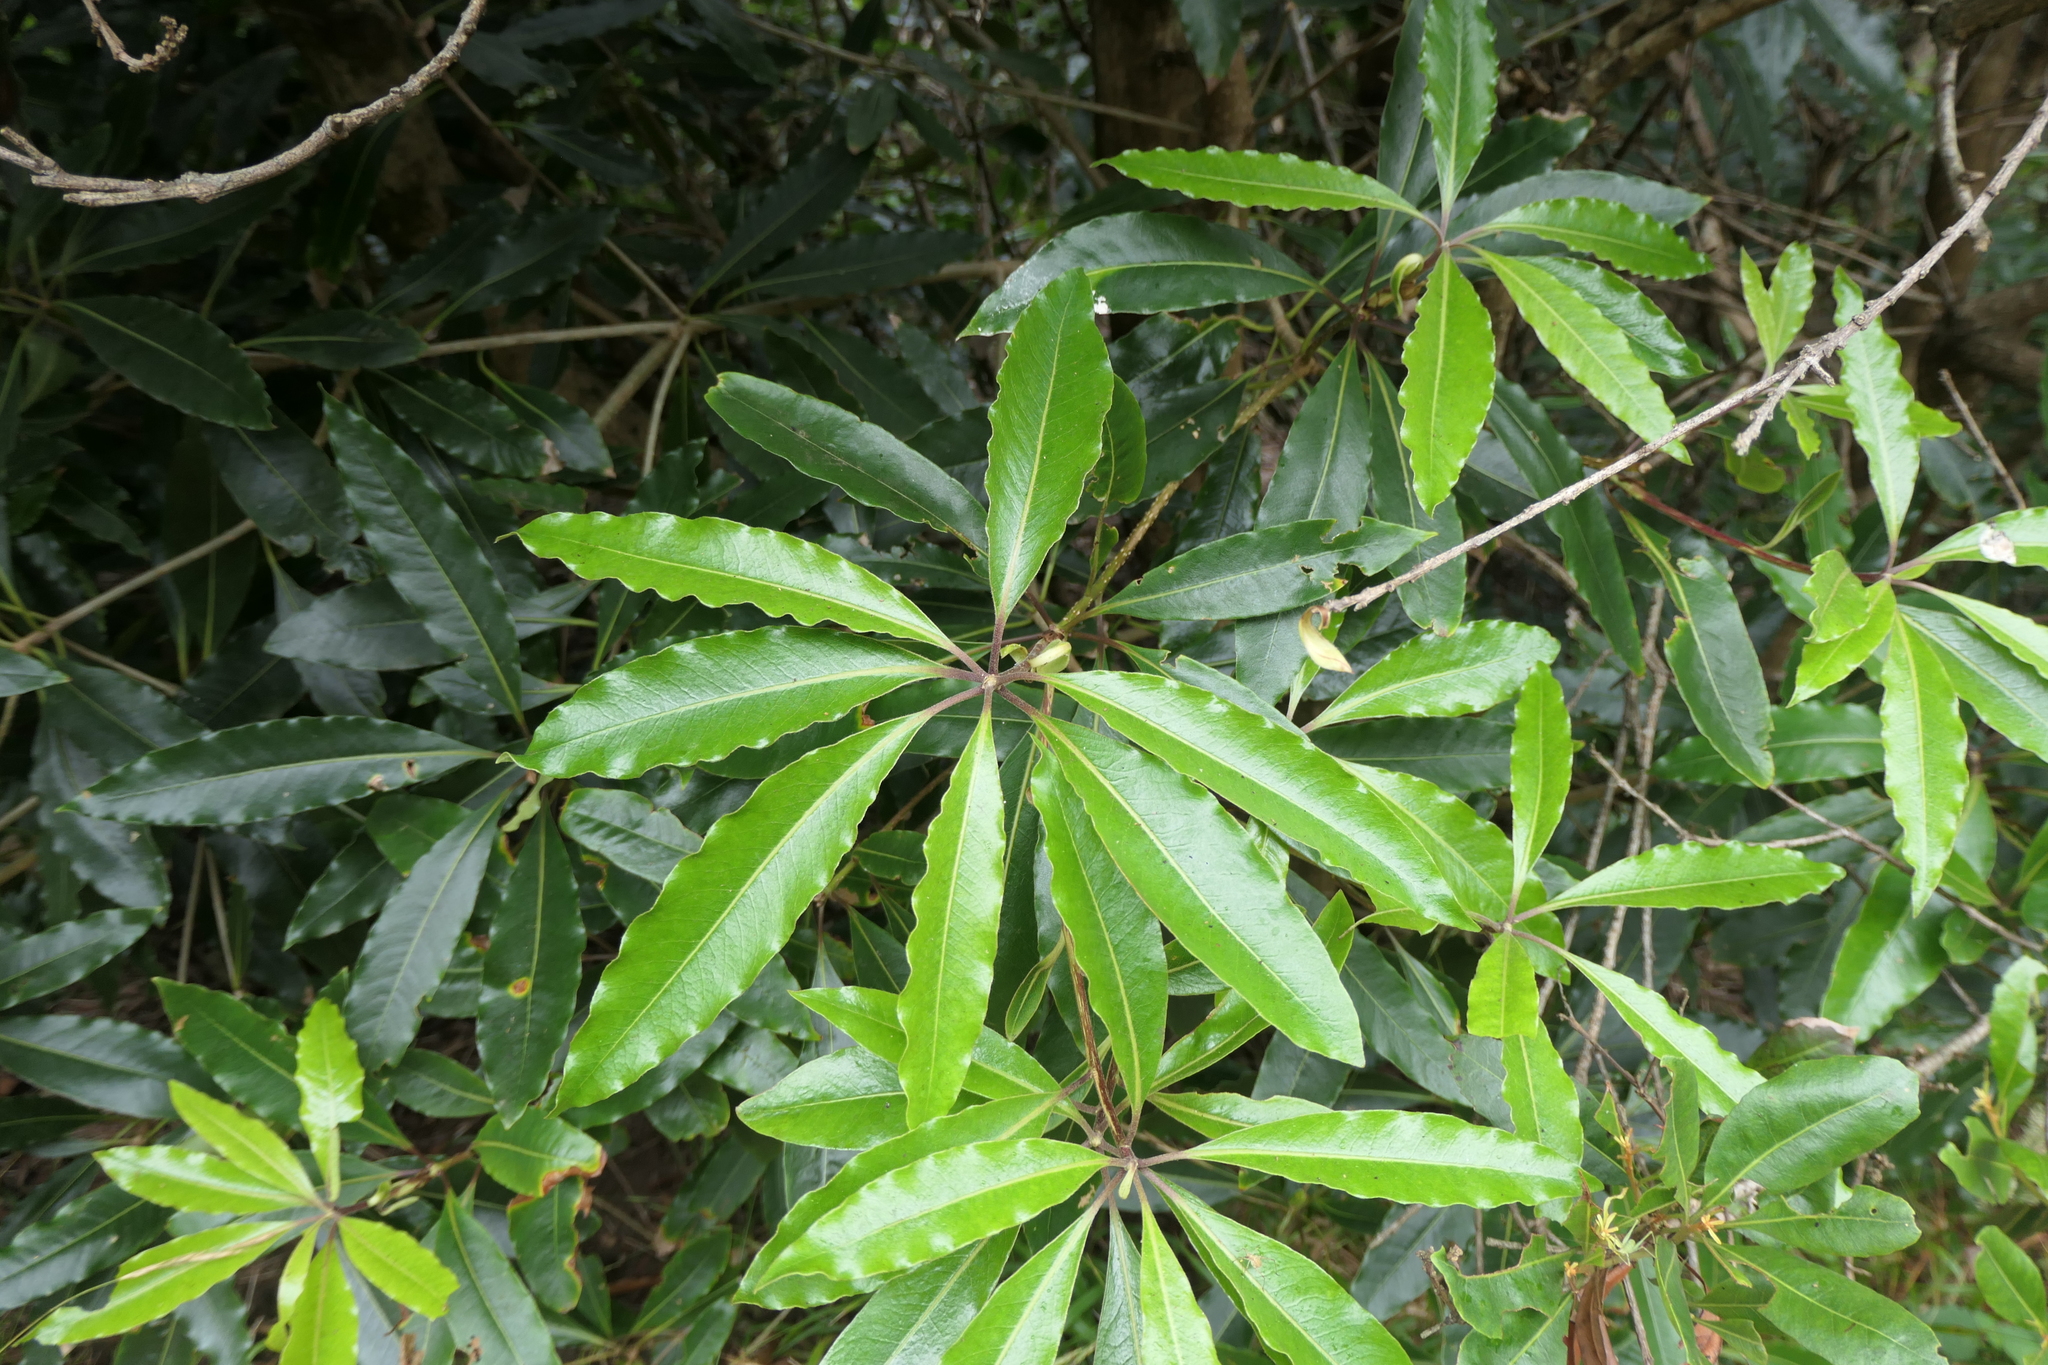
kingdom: Plantae
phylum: Tracheophyta
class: Magnoliopsida
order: Apiales
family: Pittosporaceae
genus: Pittosporum
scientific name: Pittosporum undulatum
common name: Australian cheesewood
